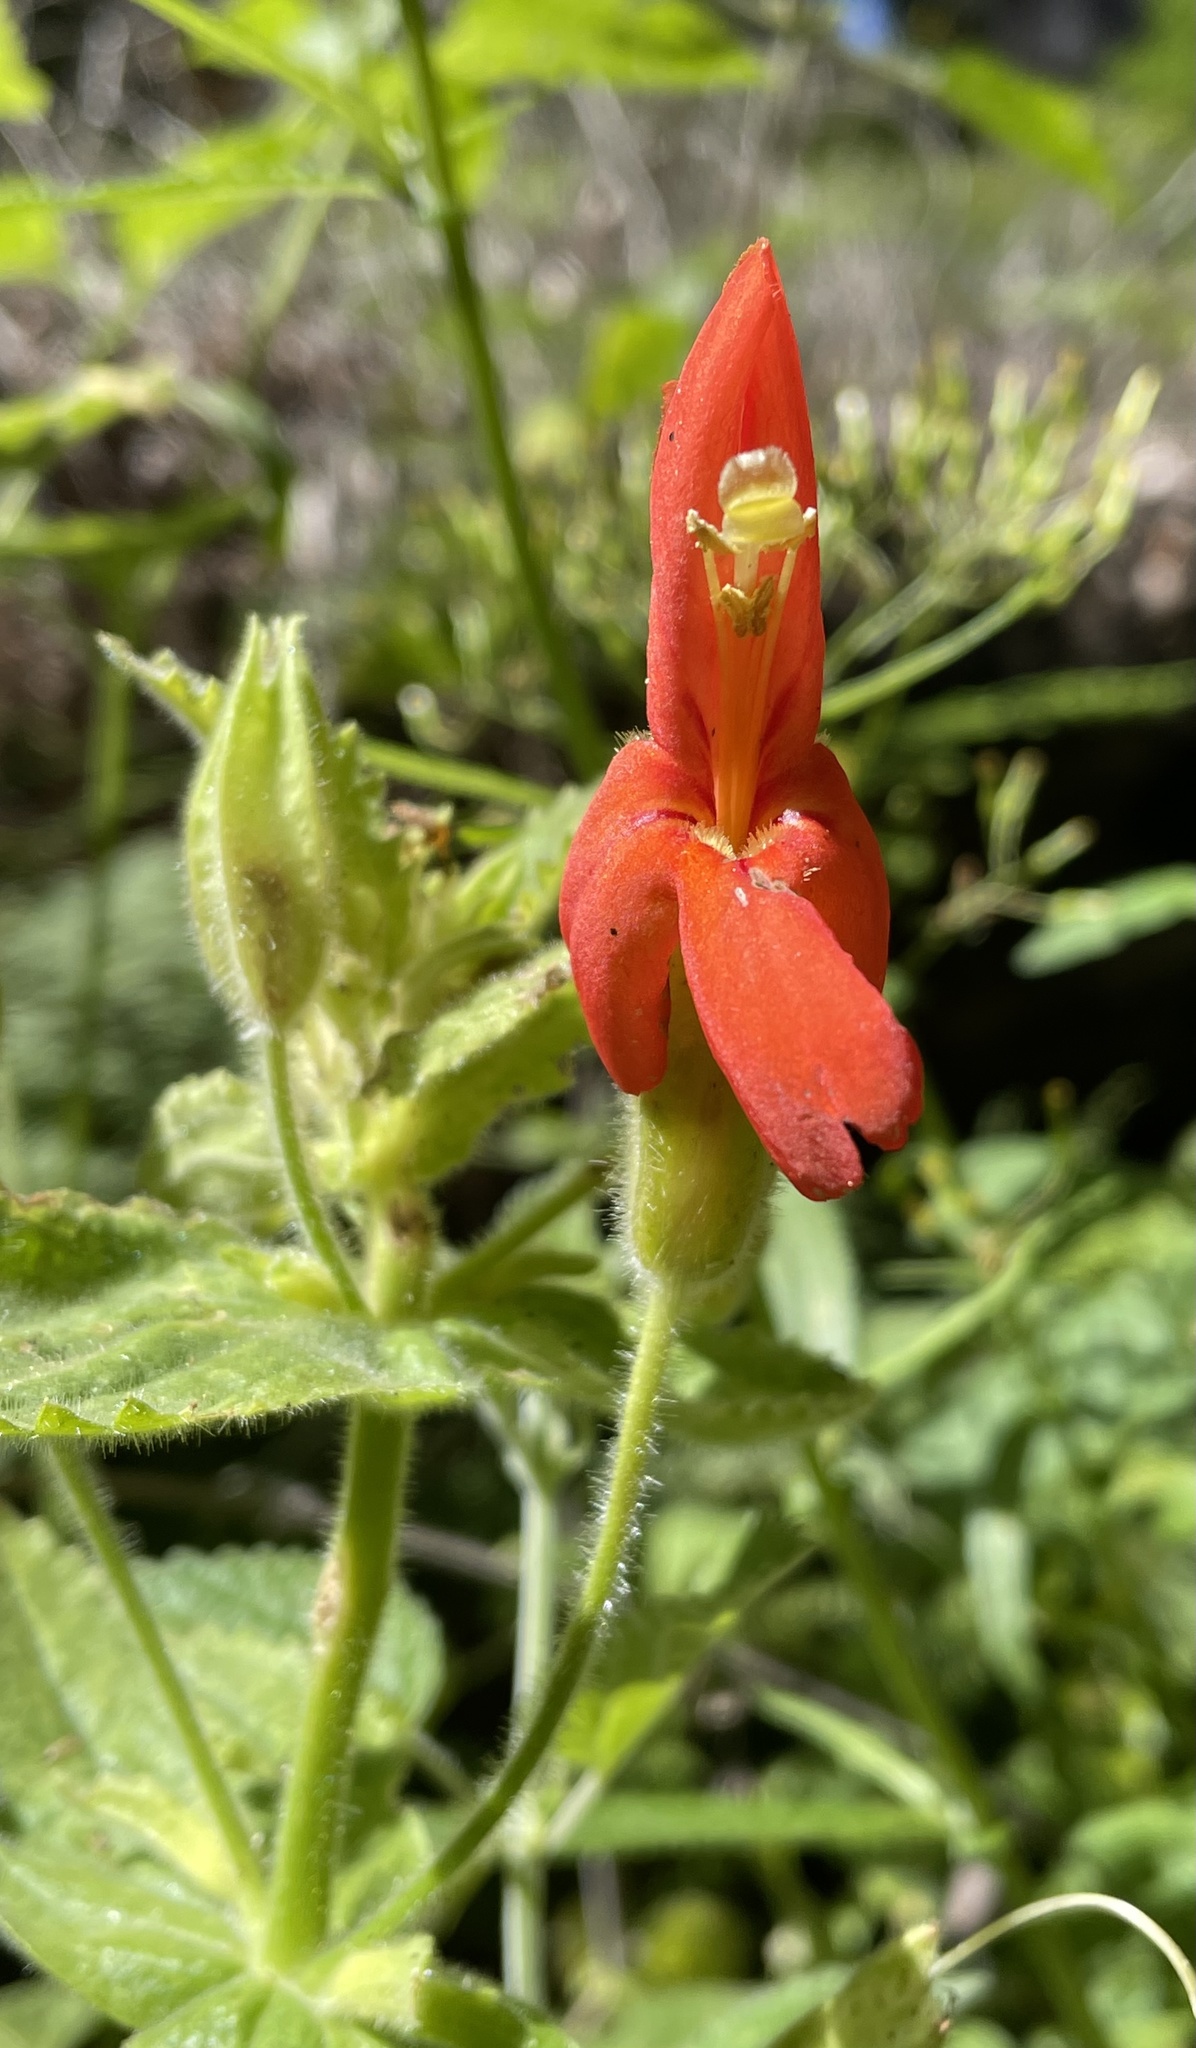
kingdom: Plantae
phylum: Tracheophyta
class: Magnoliopsida
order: Lamiales
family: Phrymaceae
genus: Erythranthe
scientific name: Erythranthe cardinalis
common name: Scarlet monkey-flower
